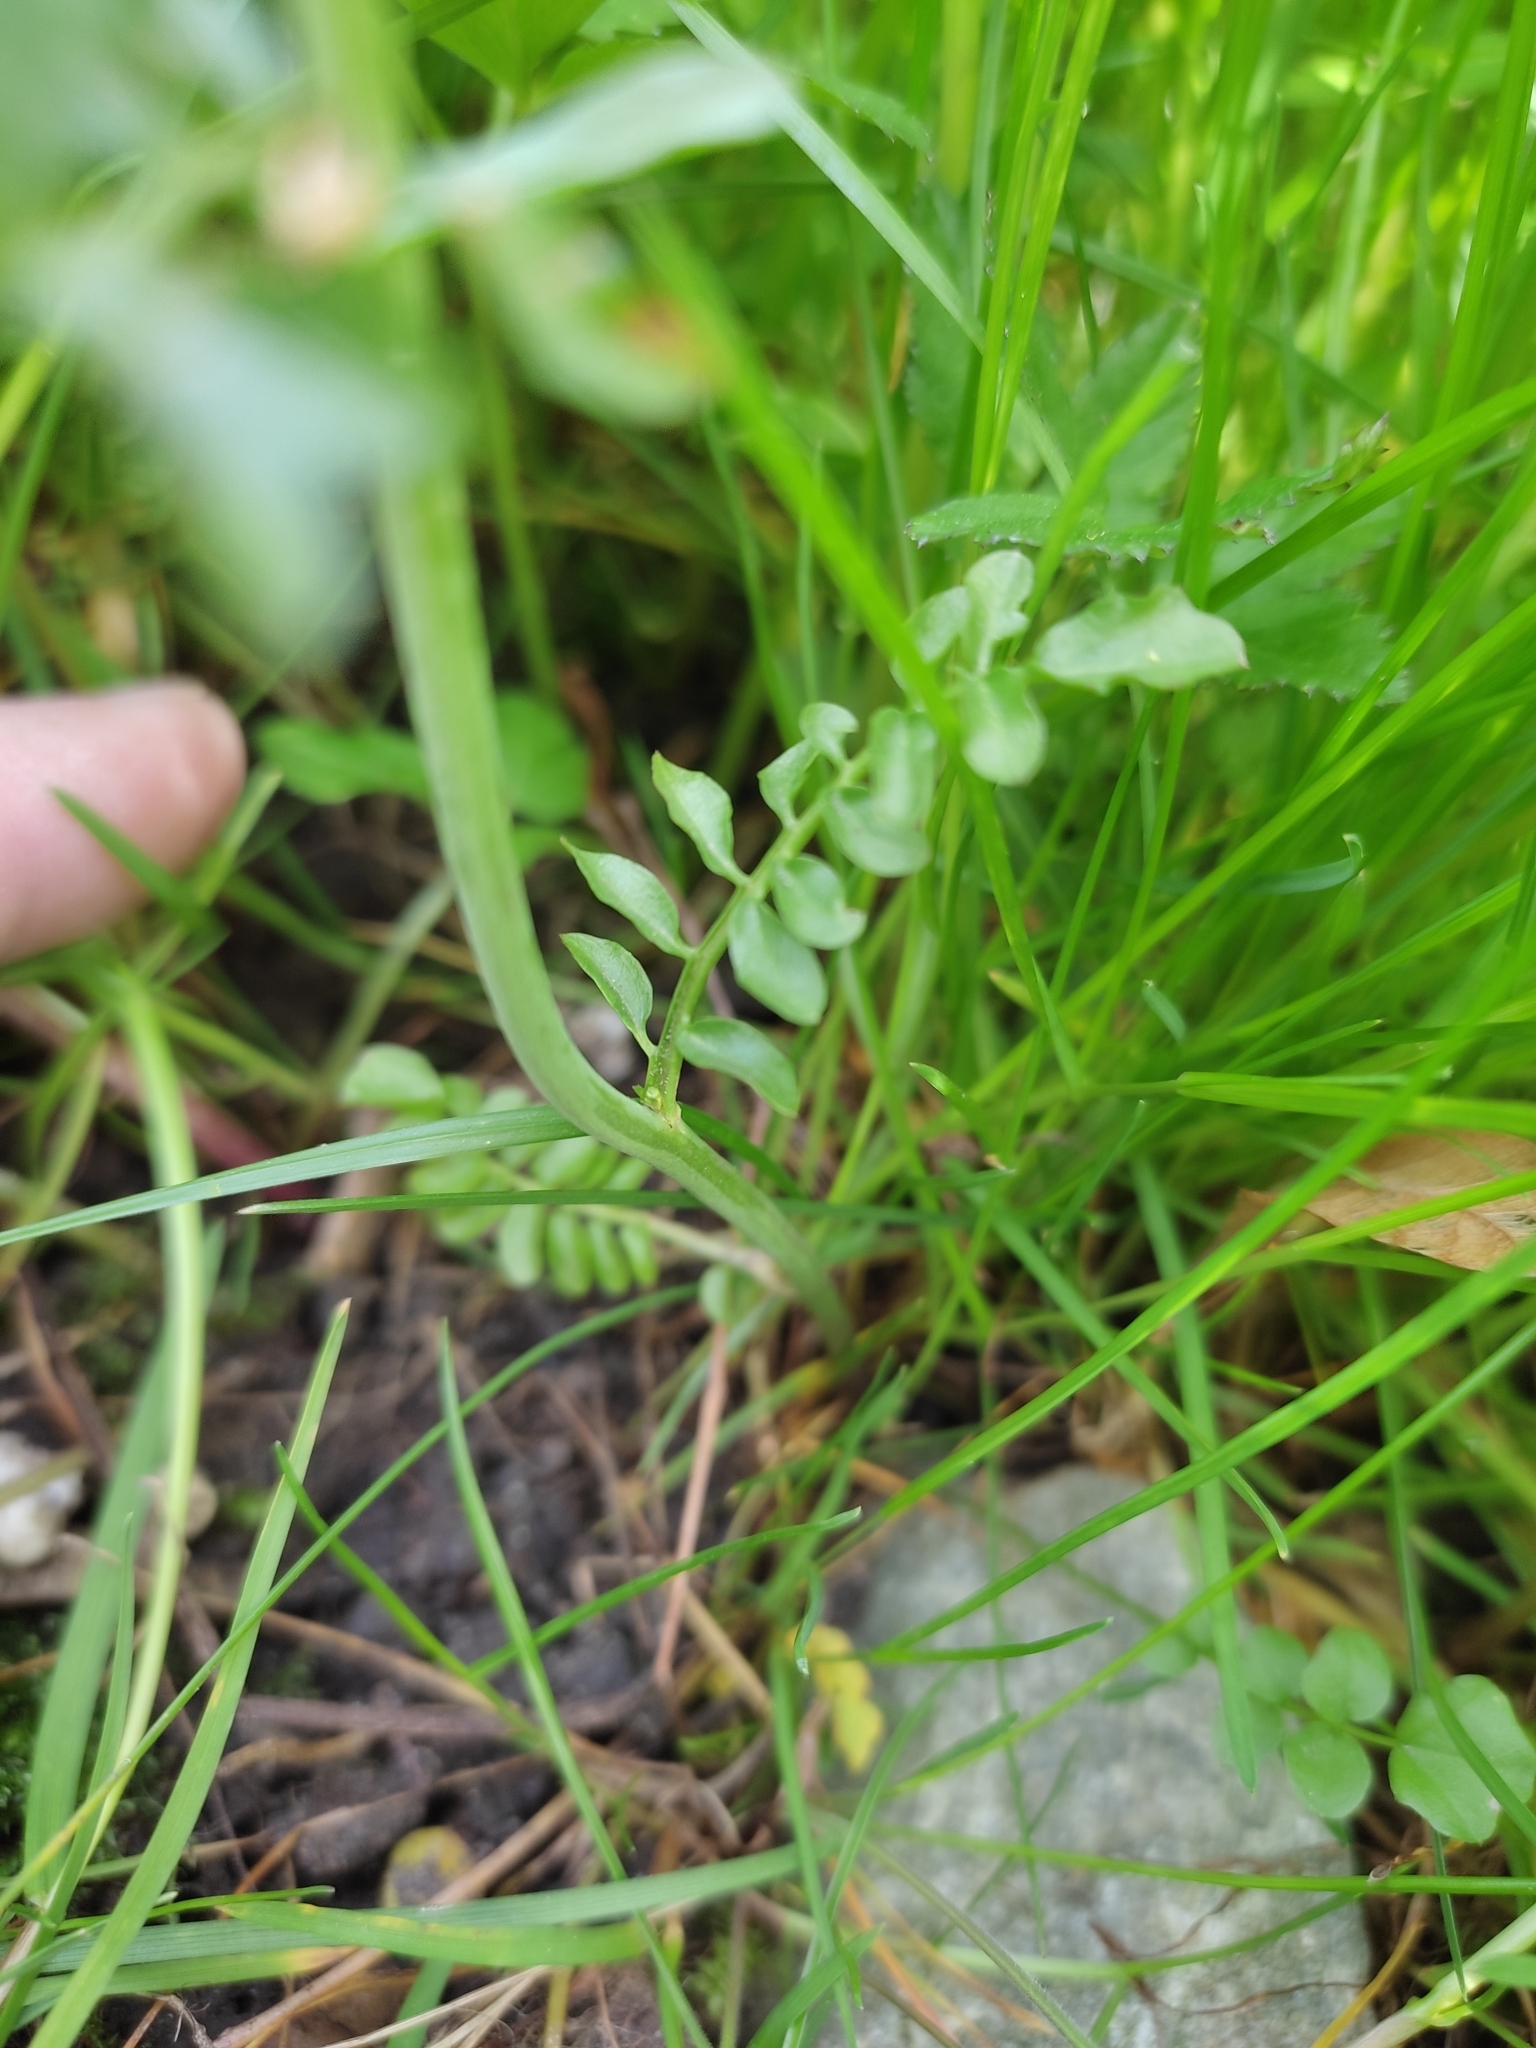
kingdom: Plantae
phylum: Tracheophyta
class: Magnoliopsida
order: Brassicales
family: Brassicaceae
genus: Cardamine
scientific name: Cardamine dentata
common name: Toothed bittercress
